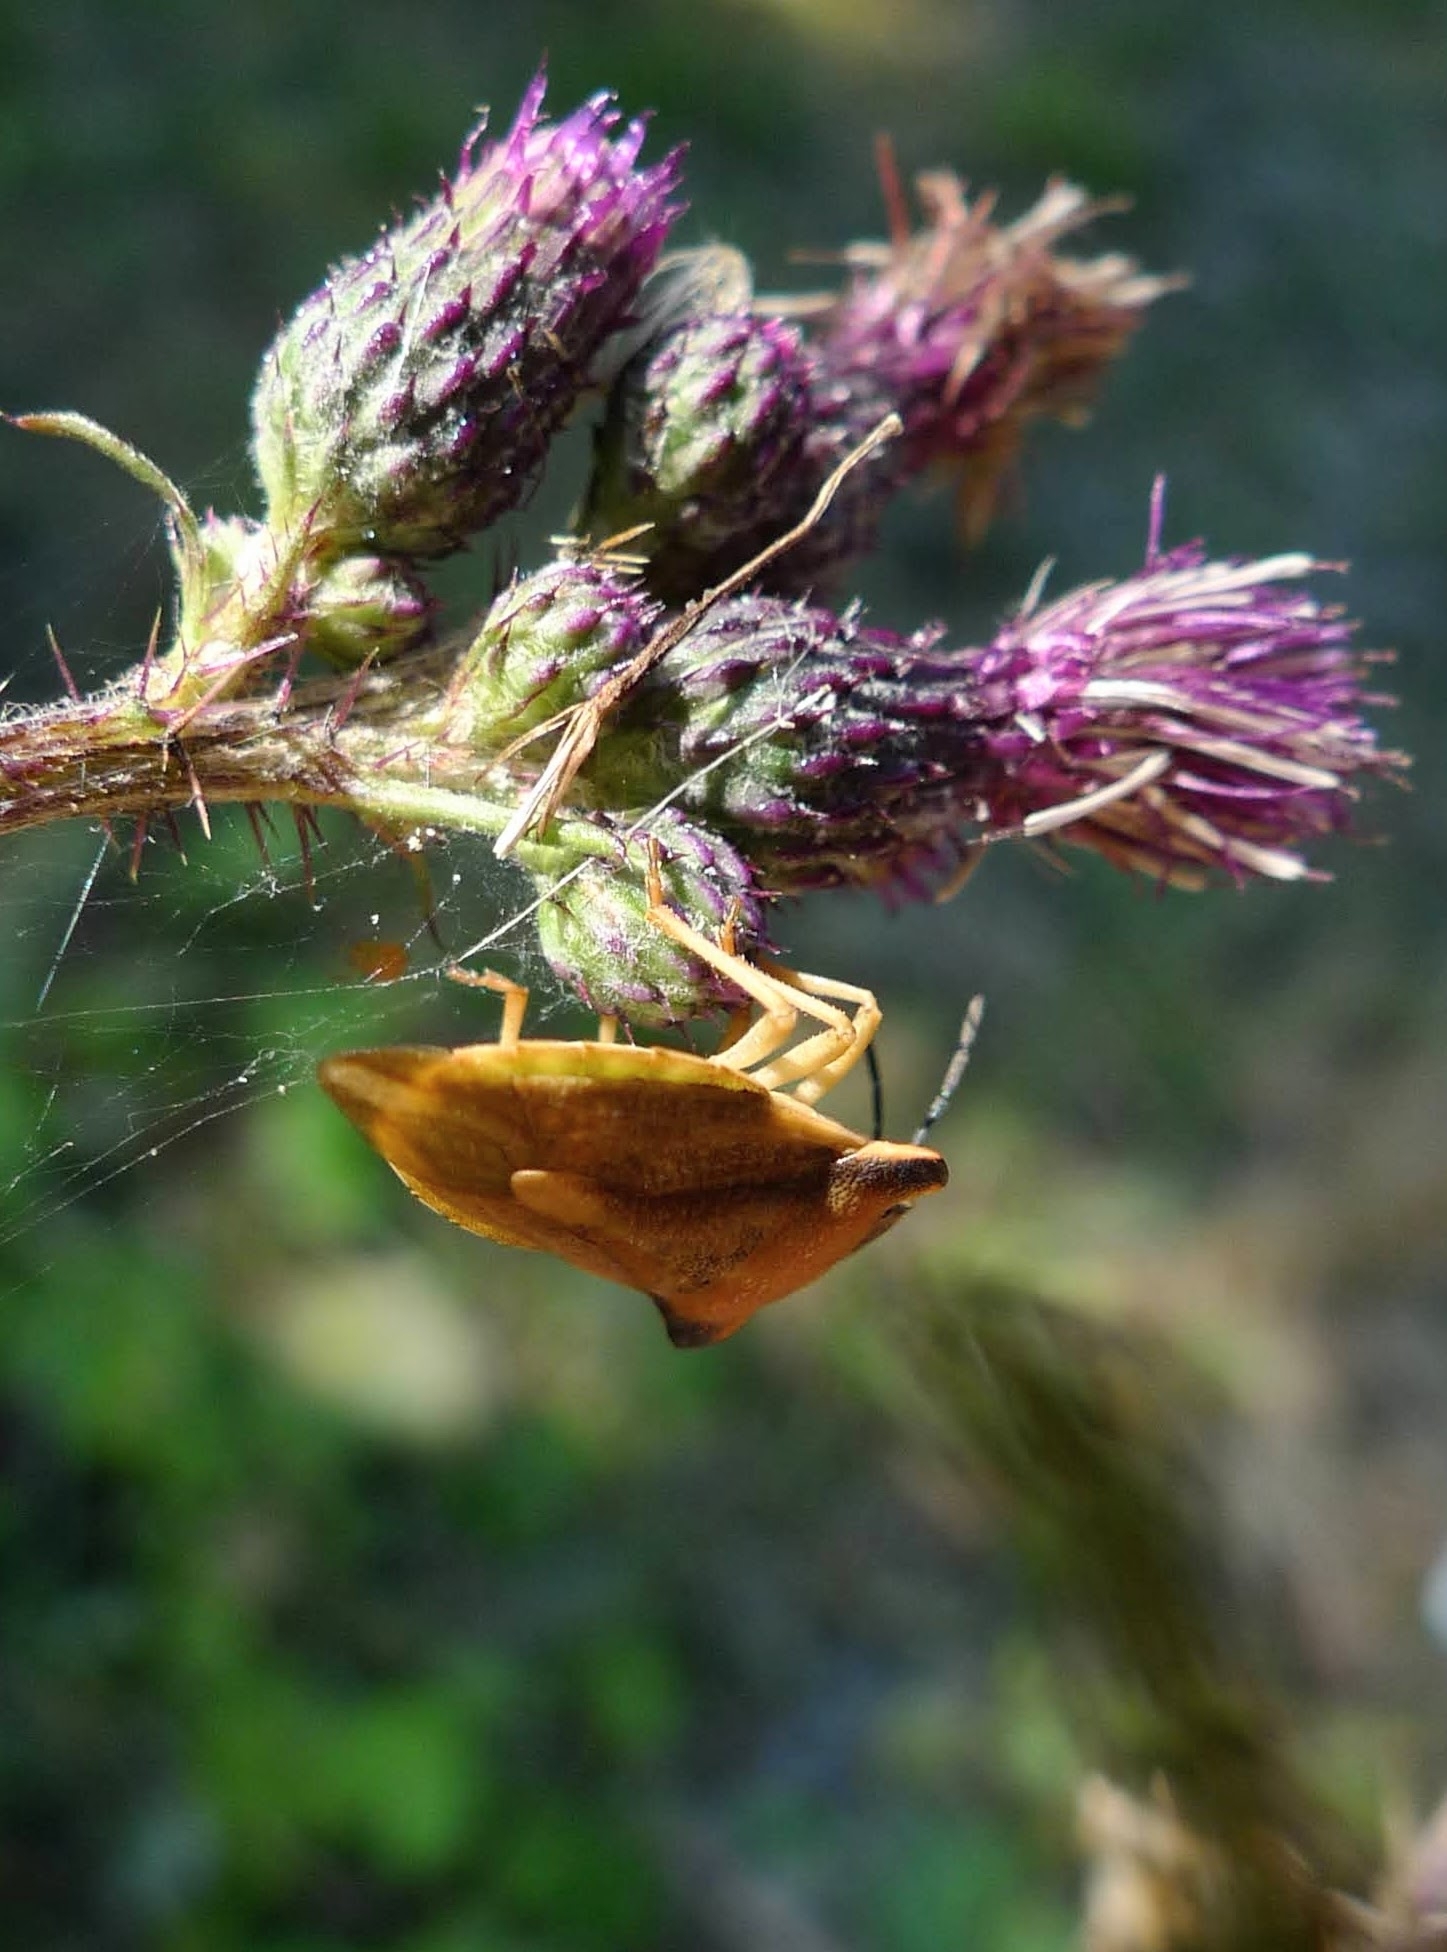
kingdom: Animalia
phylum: Arthropoda
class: Insecta
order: Hemiptera
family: Pentatomidae
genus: Carpocoris
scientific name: Carpocoris fuscispinus
